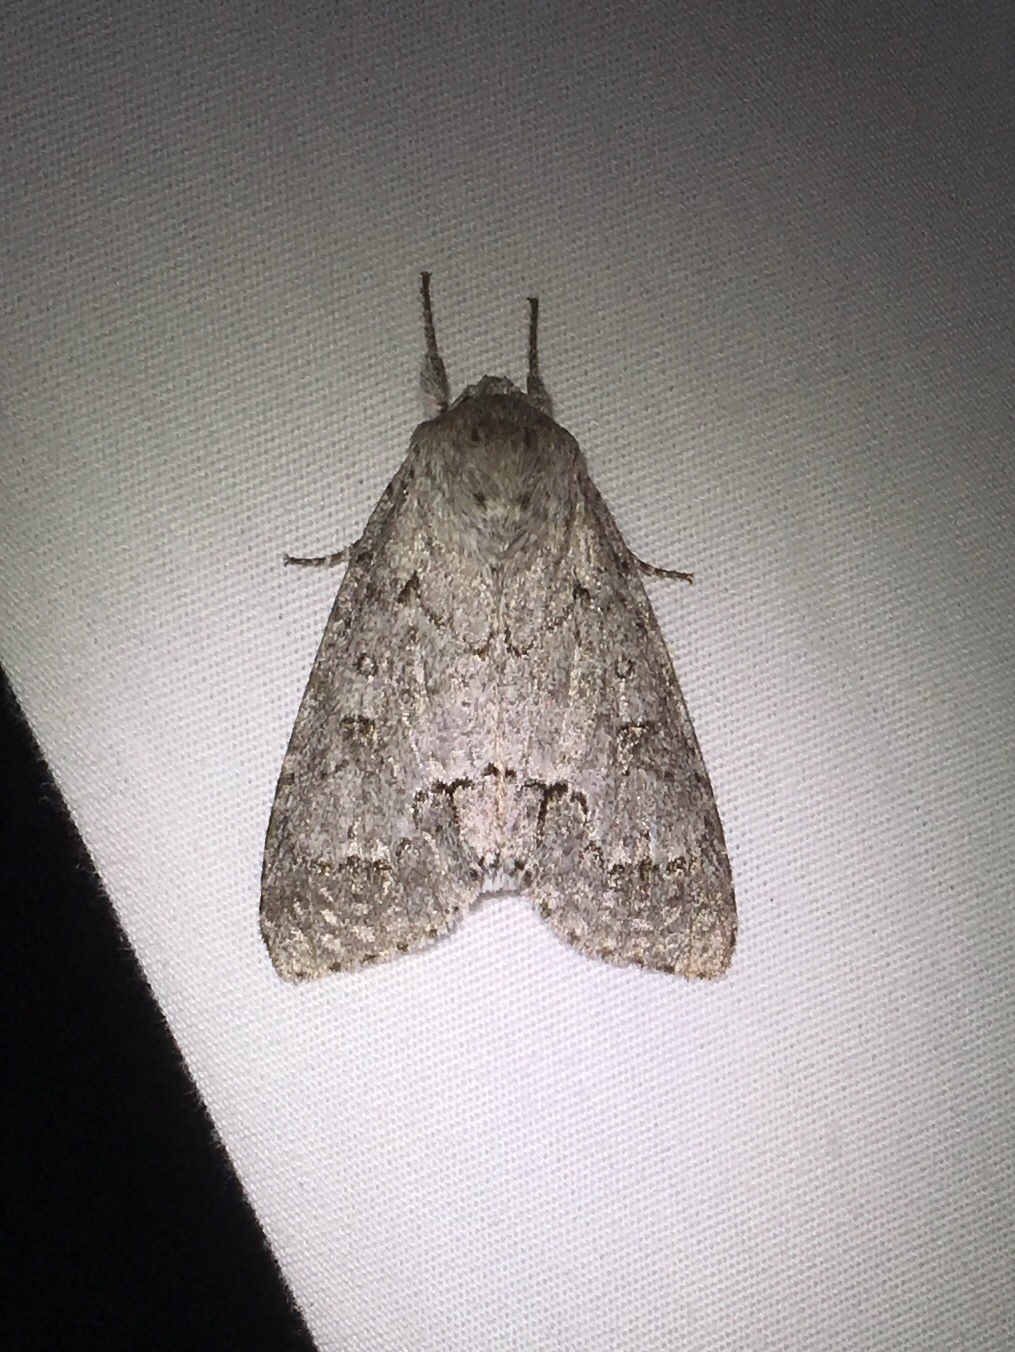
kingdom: Animalia
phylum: Arthropoda
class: Insecta
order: Lepidoptera
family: Noctuidae
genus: Acronicta
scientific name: Acronicta insita
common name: Large gray dagger
